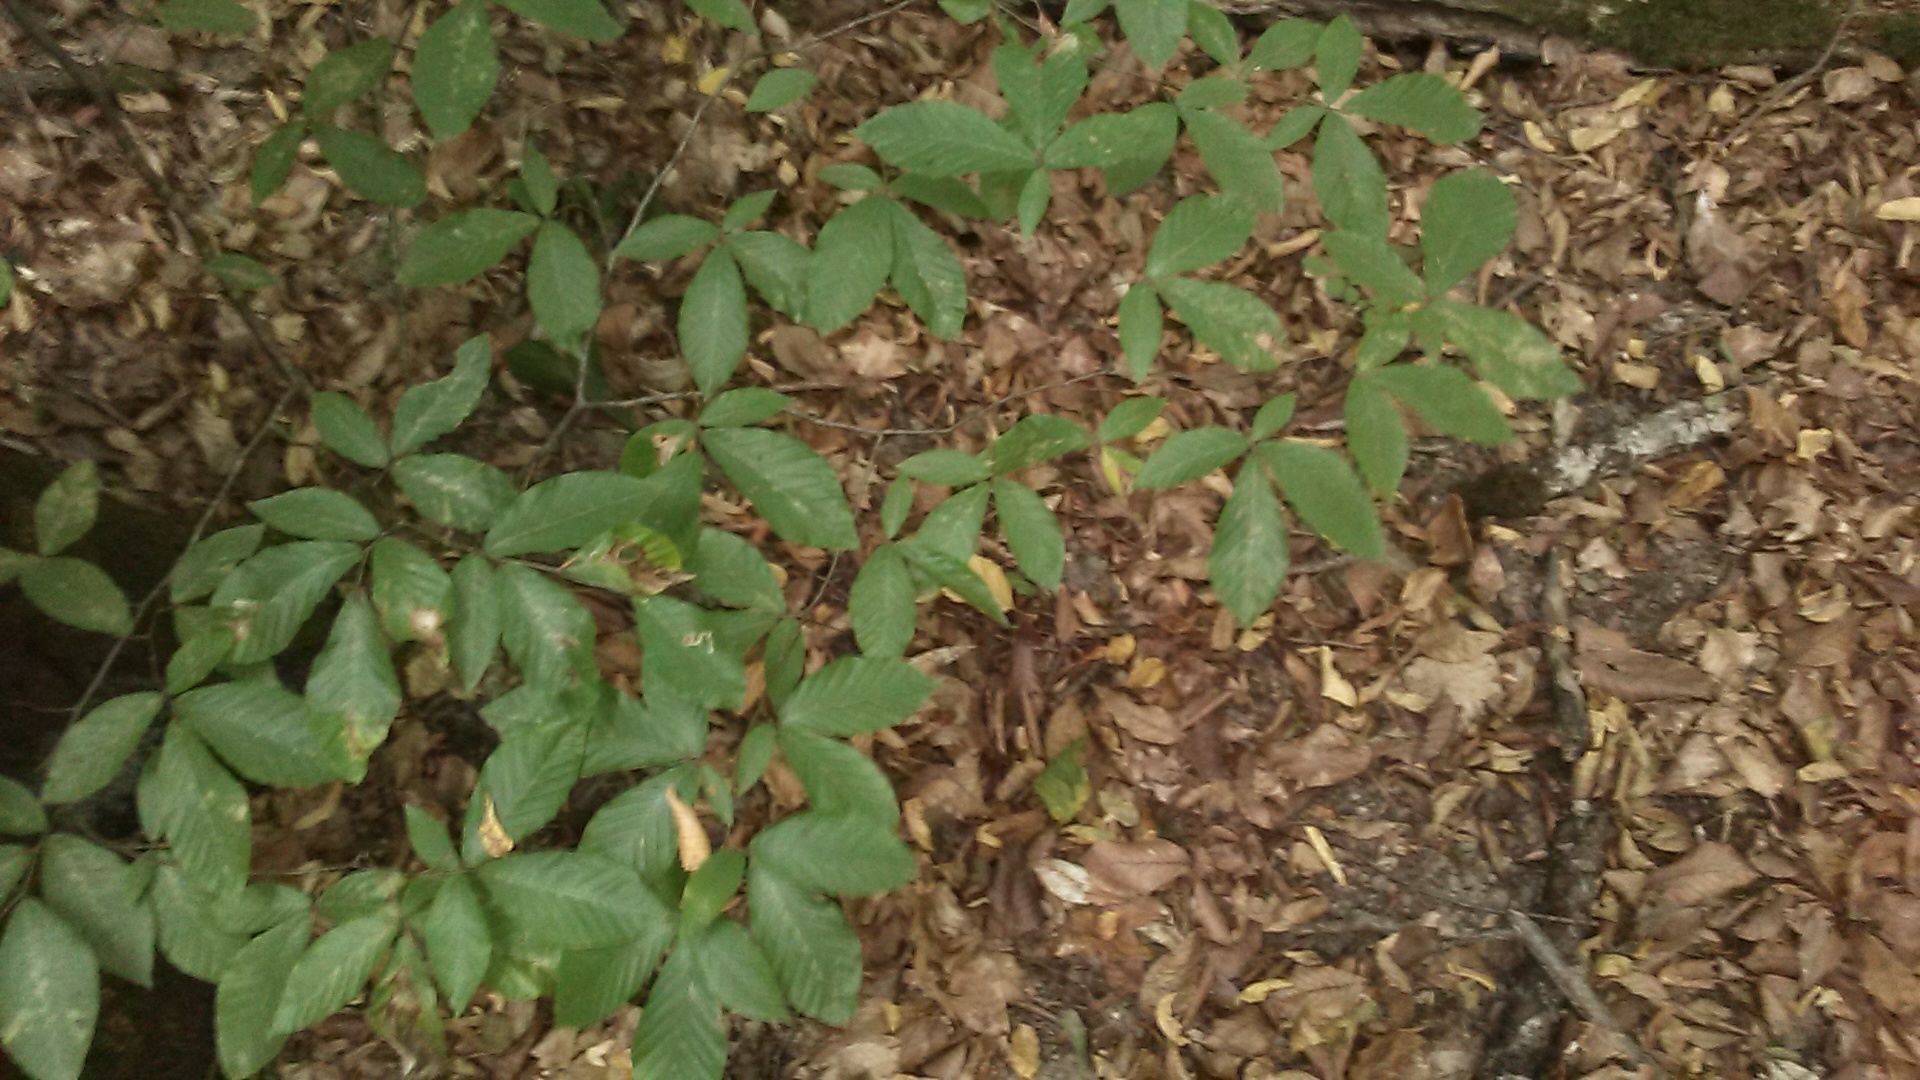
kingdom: Plantae
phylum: Tracheophyta
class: Magnoliopsida
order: Fagales
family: Fagaceae
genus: Fagus
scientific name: Fagus orientalis
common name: Oriental beech
